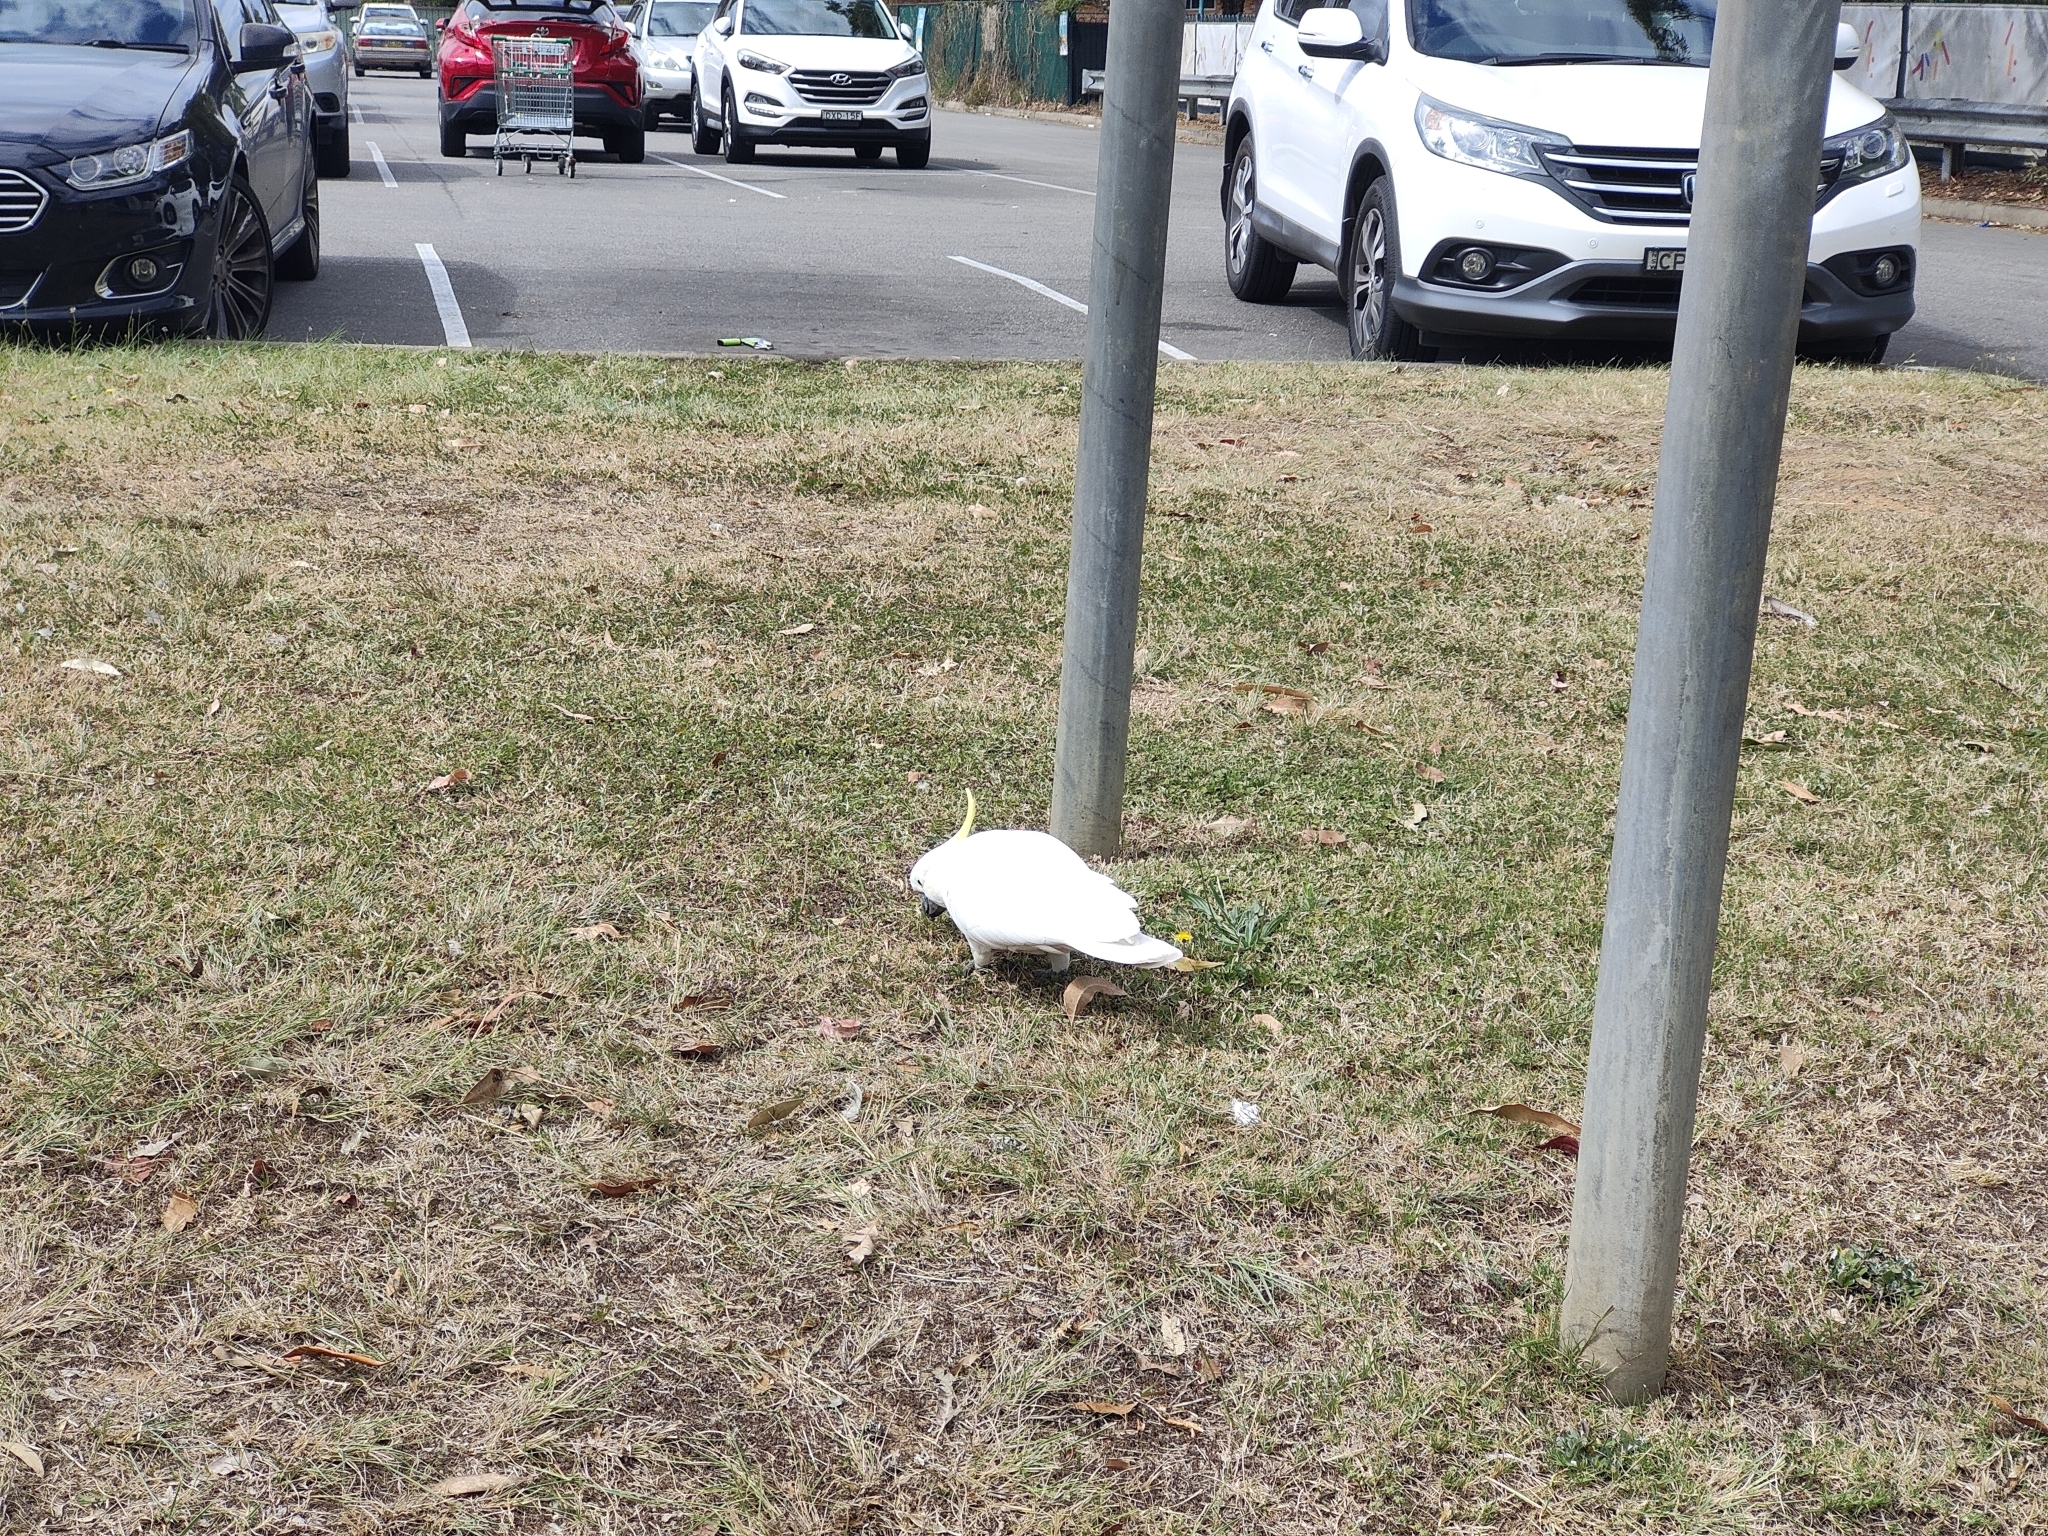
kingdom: Animalia
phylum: Chordata
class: Aves
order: Psittaciformes
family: Psittacidae
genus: Cacatua
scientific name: Cacatua galerita
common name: Sulphur-crested cockatoo
